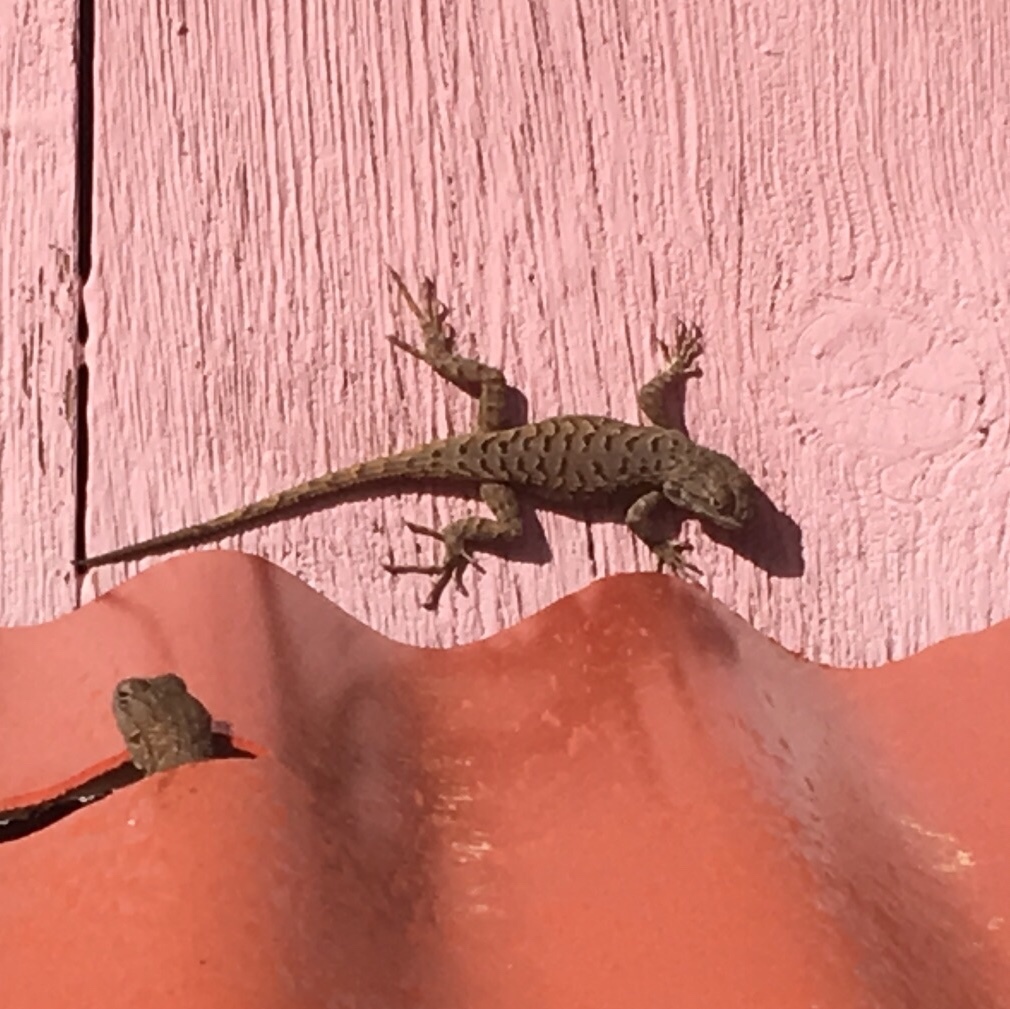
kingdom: Animalia
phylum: Chordata
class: Squamata
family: Phrynosomatidae
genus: Sceloporus
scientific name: Sceloporus tristichus
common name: Plateau fence lizard
